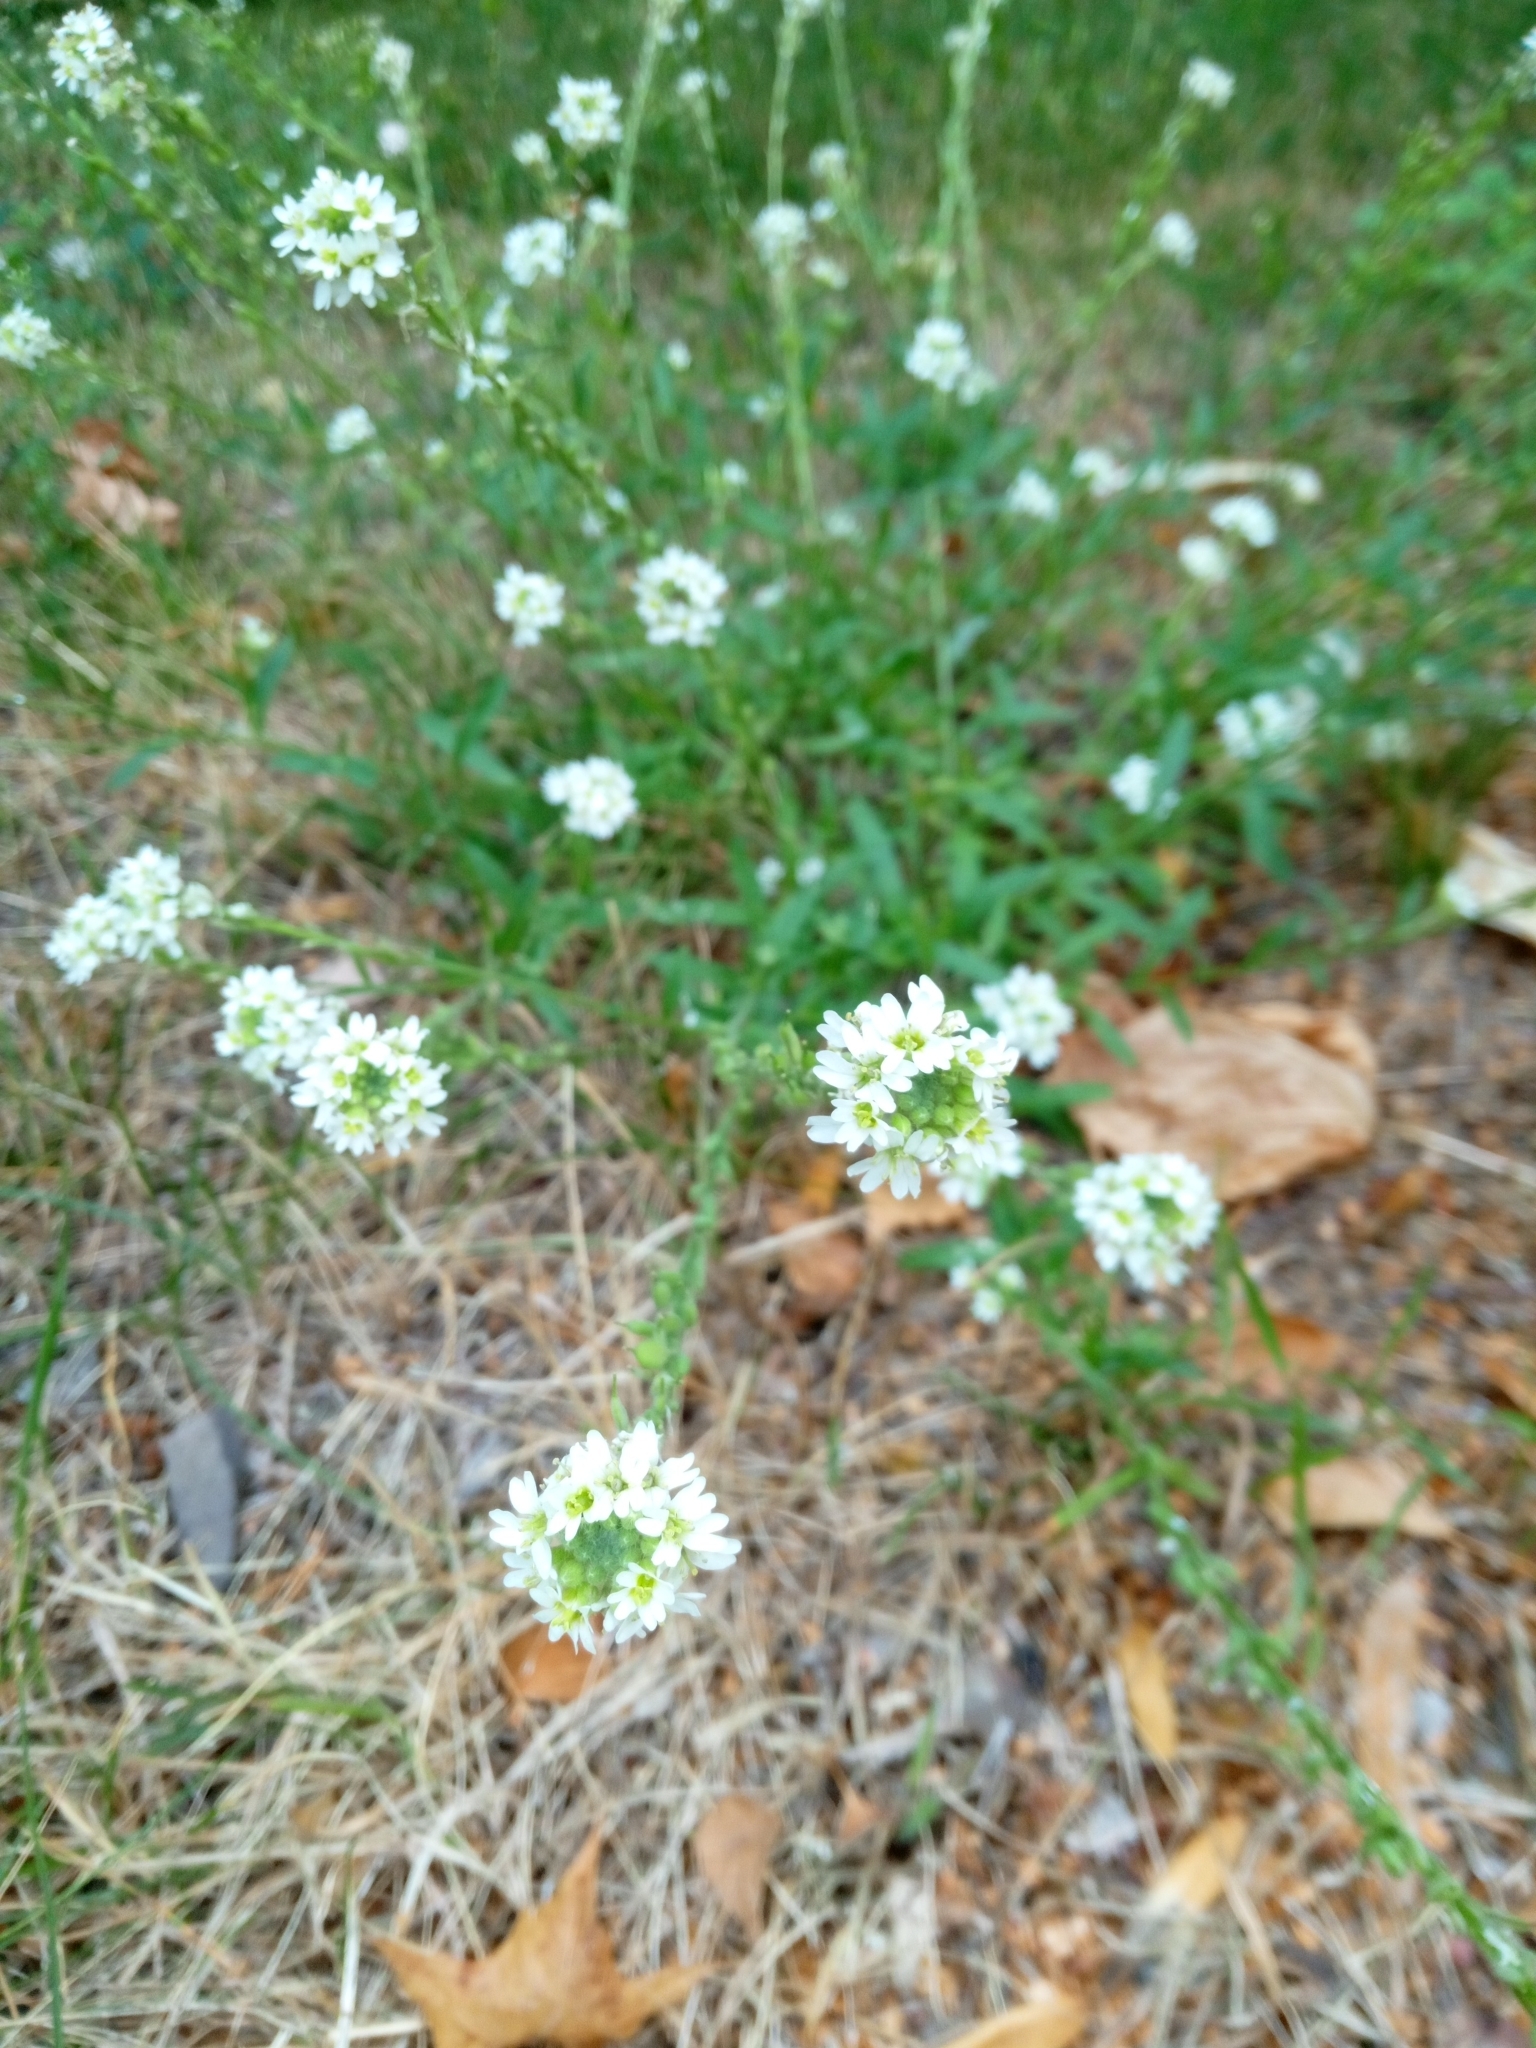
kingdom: Plantae
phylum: Tracheophyta
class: Magnoliopsida
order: Brassicales
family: Brassicaceae
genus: Berteroa
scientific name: Berteroa incana
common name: Hoary alison
